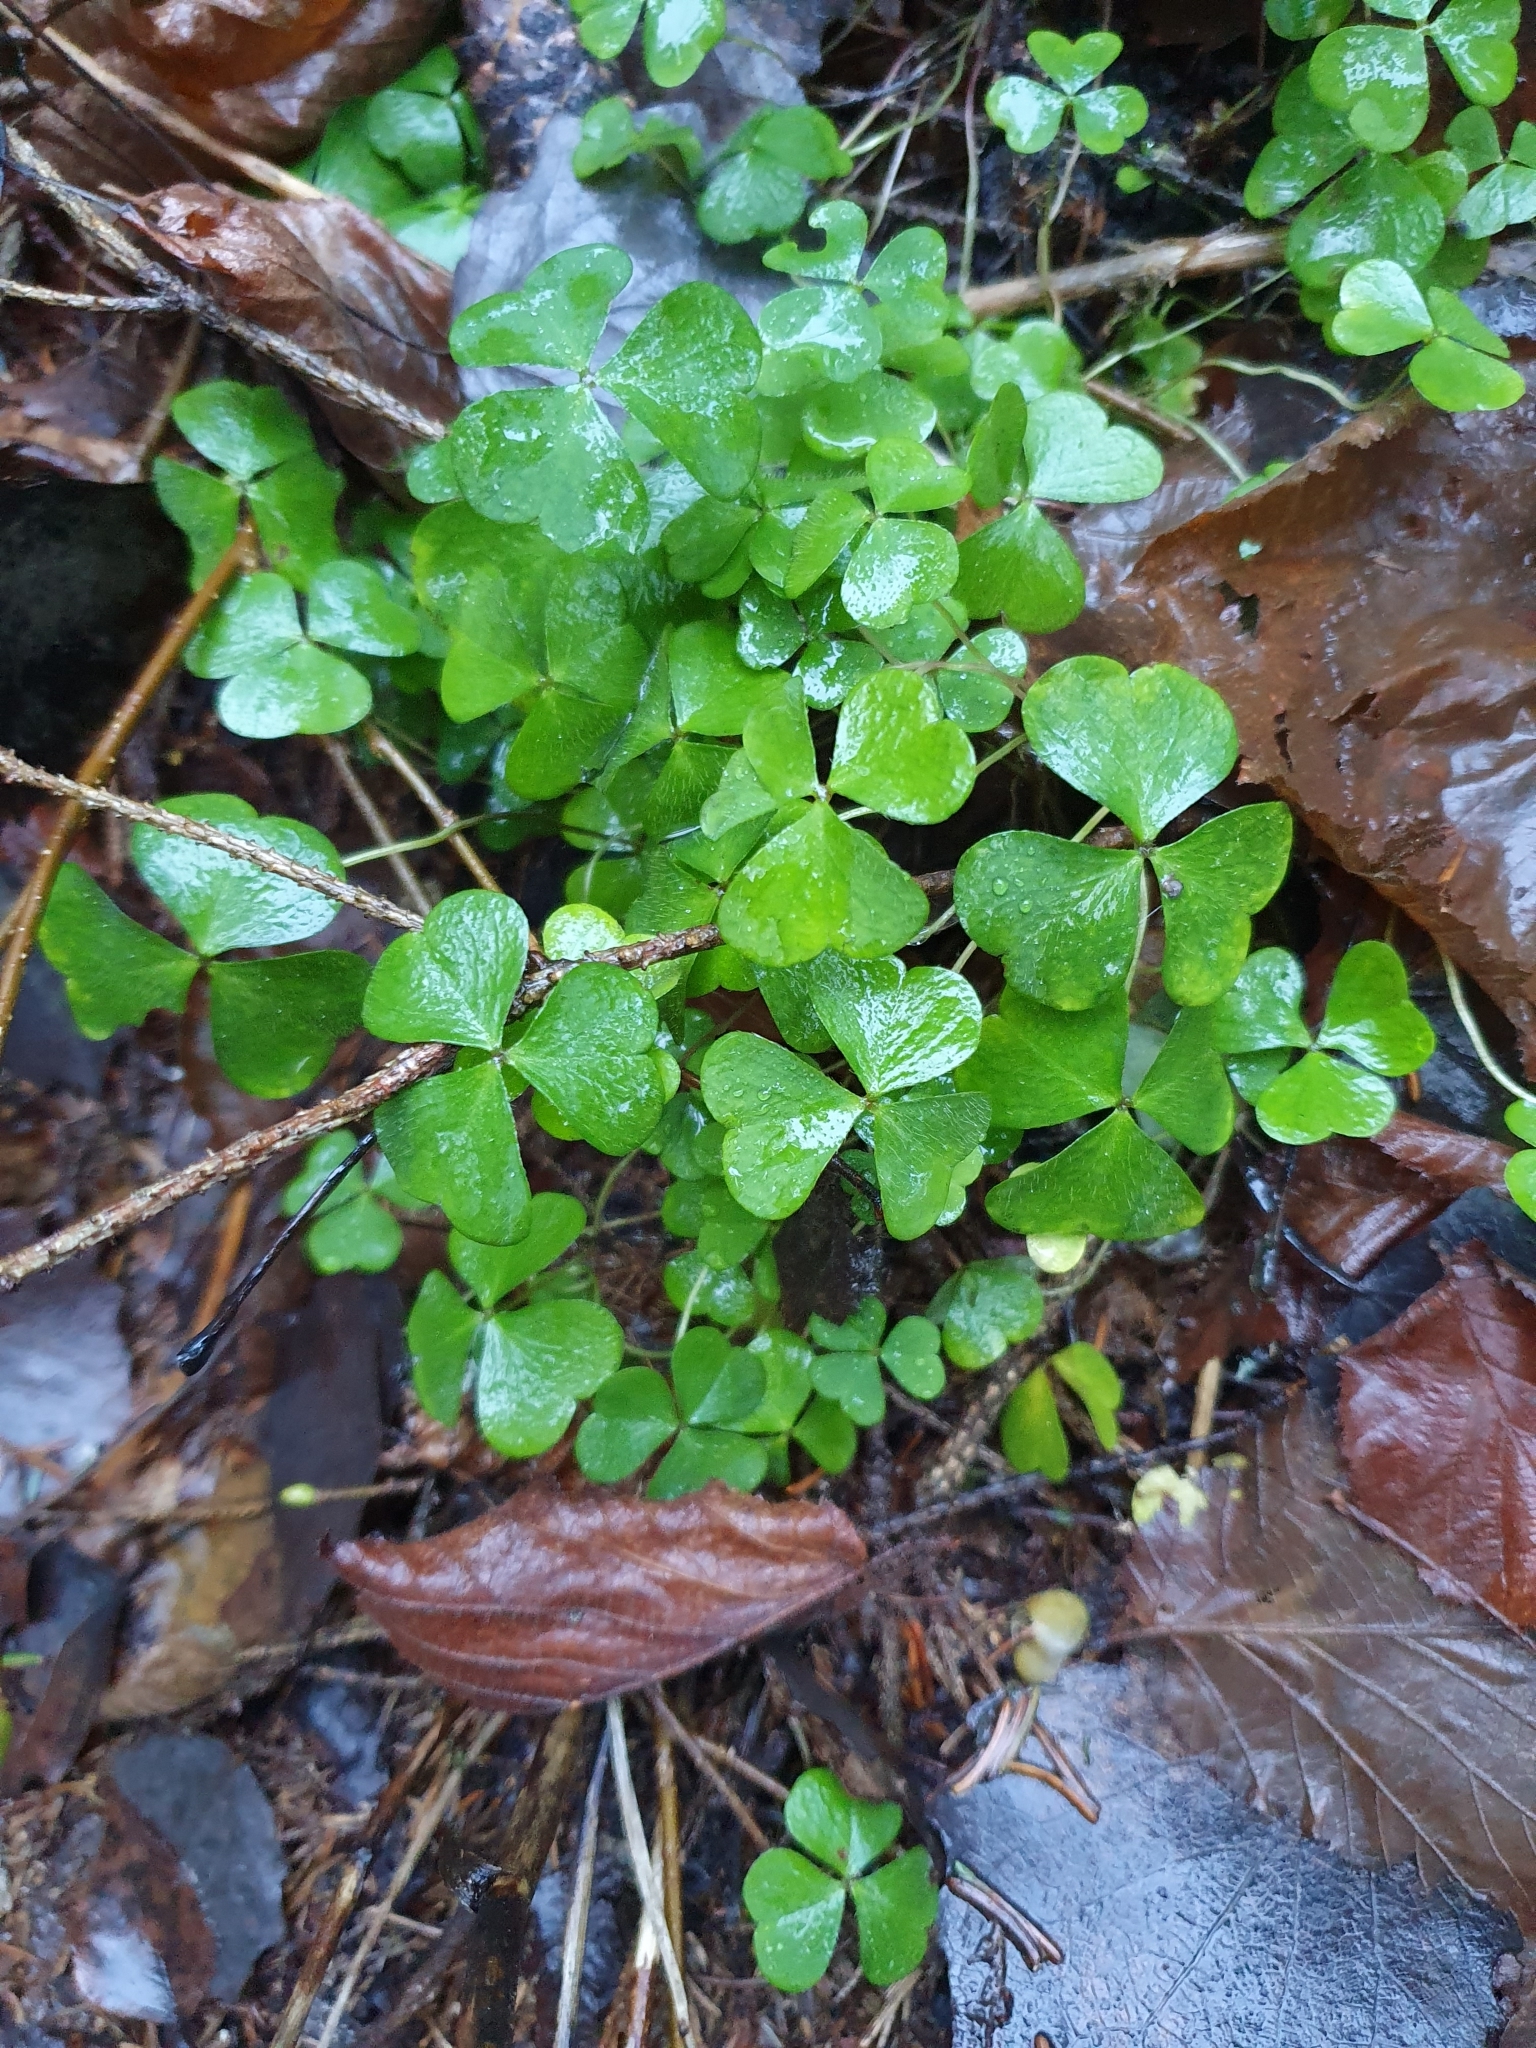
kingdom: Plantae
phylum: Tracheophyta
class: Magnoliopsida
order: Oxalidales
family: Oxalidaceae
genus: Oxalis
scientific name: Oxalis acetosella
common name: Wood-sorrel
